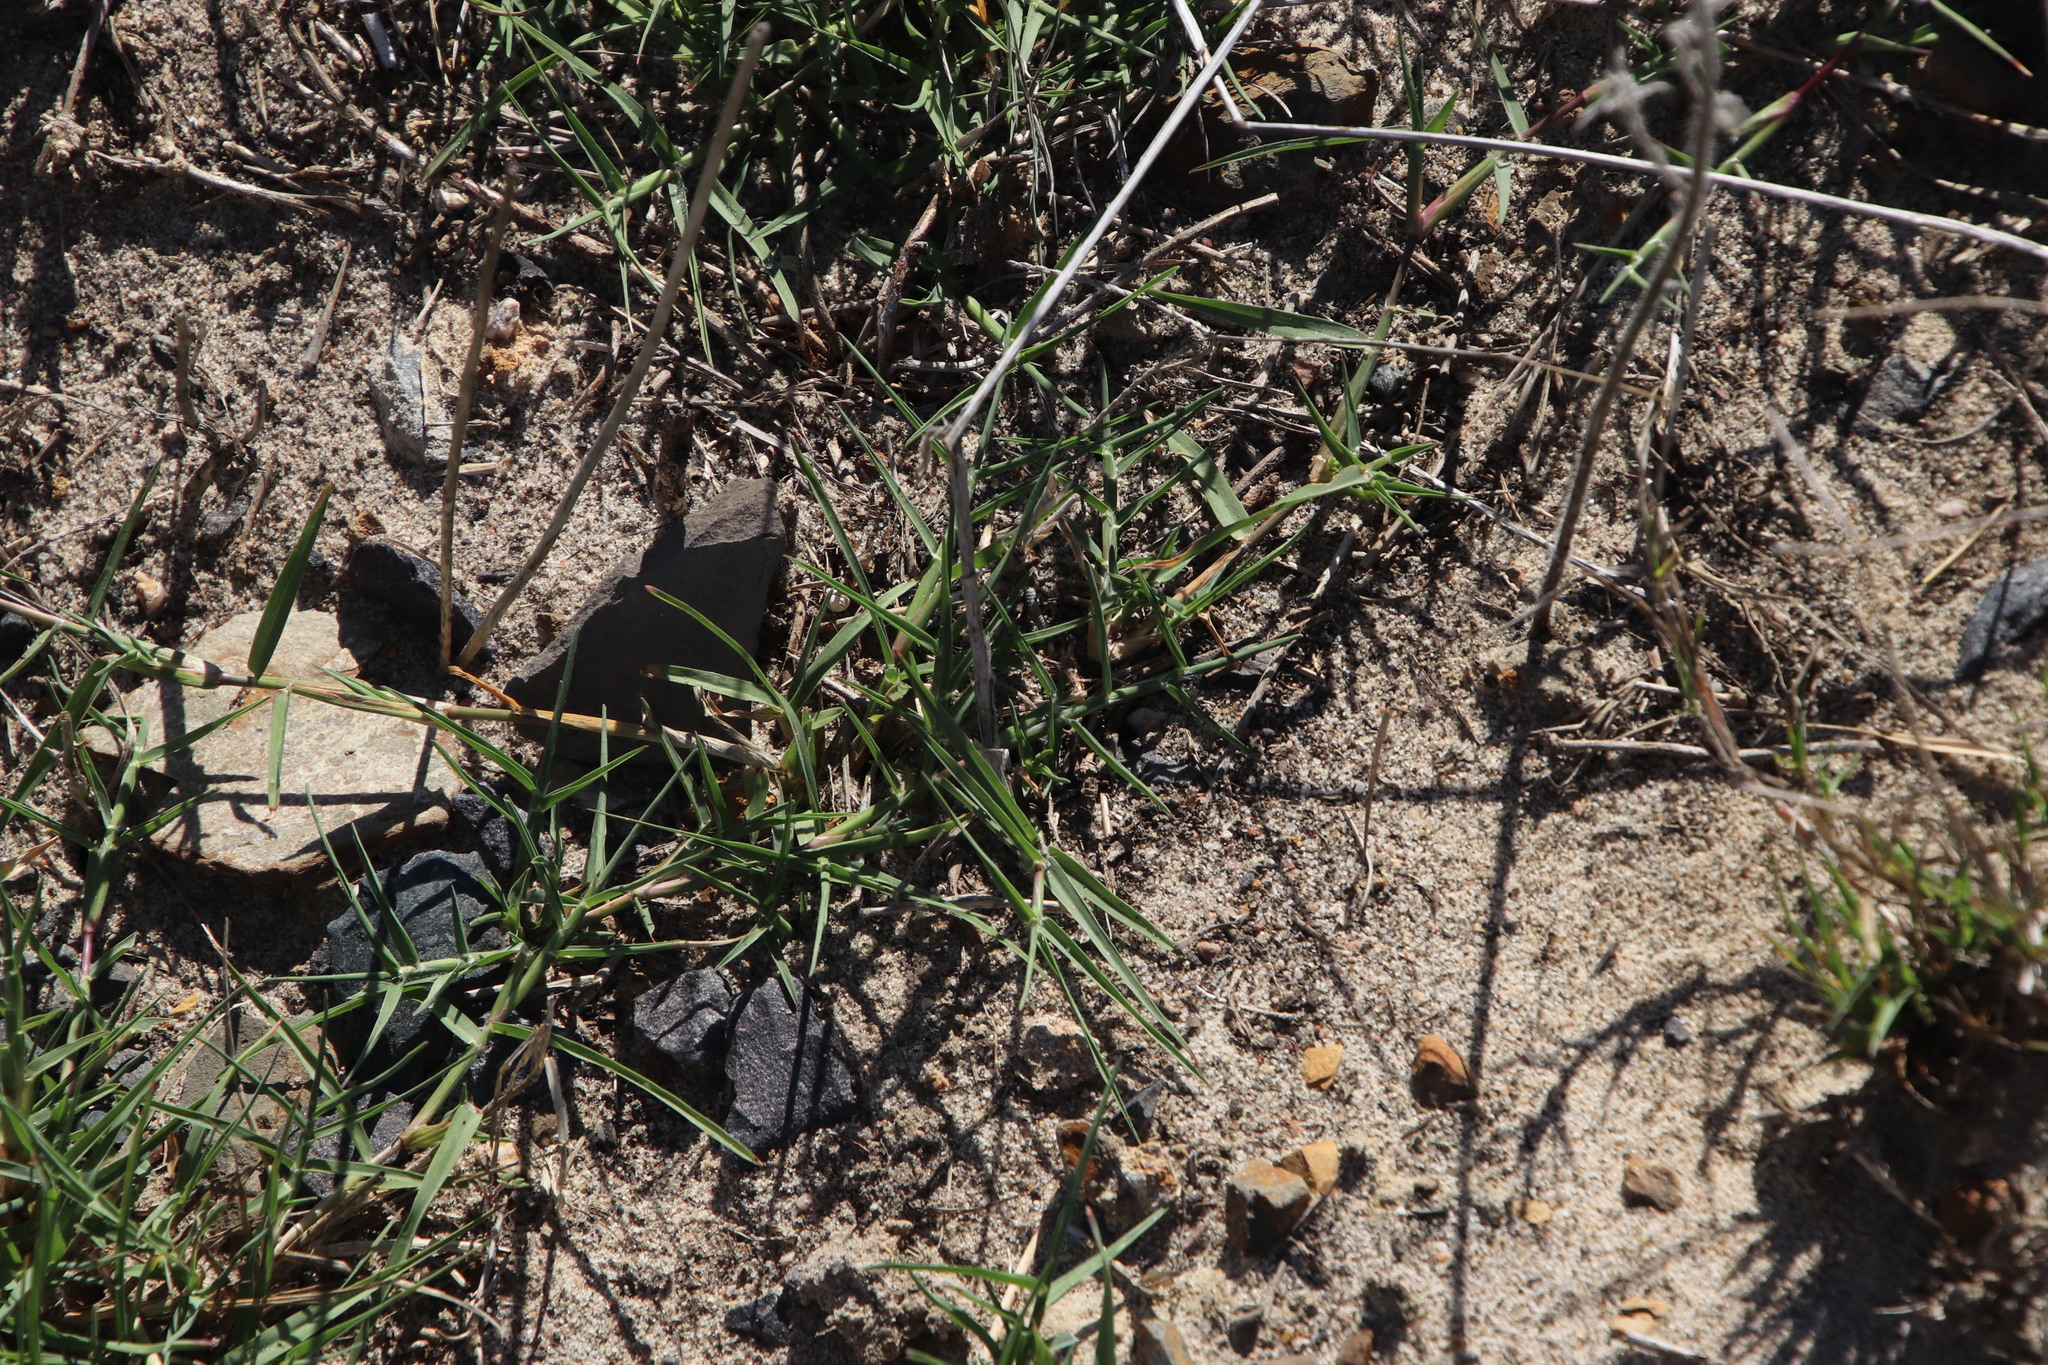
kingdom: Plantae
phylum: Tracheophyta
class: Liliopsida
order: Poales
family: Poaceae
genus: Cynodon
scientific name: Cynodon dactylon
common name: Bermuda grass
